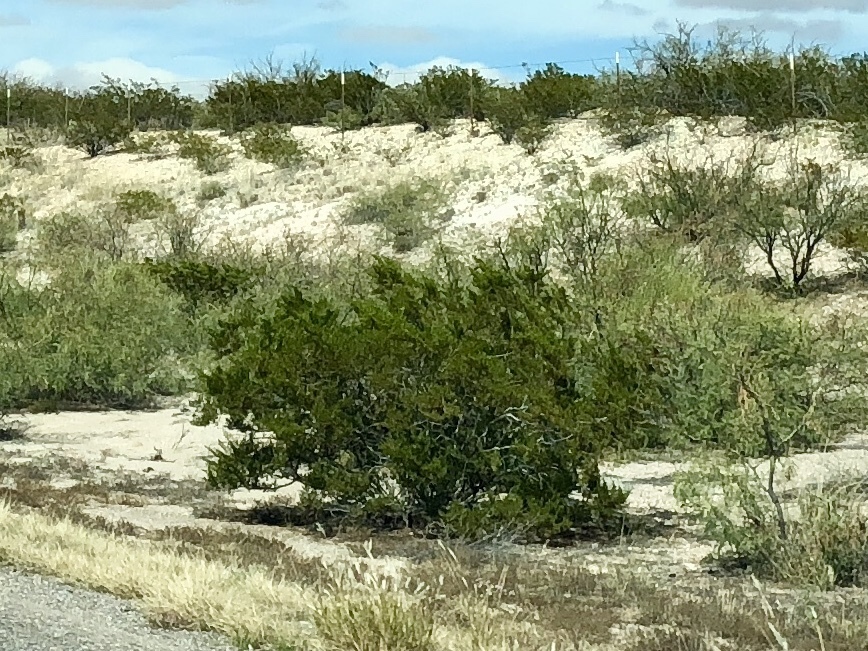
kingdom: Plantae
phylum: Tracheophyta
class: Magnoliopsida
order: Zygophyllales
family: Zygophyllaceae
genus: Larrea
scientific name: Larrea tridentata
